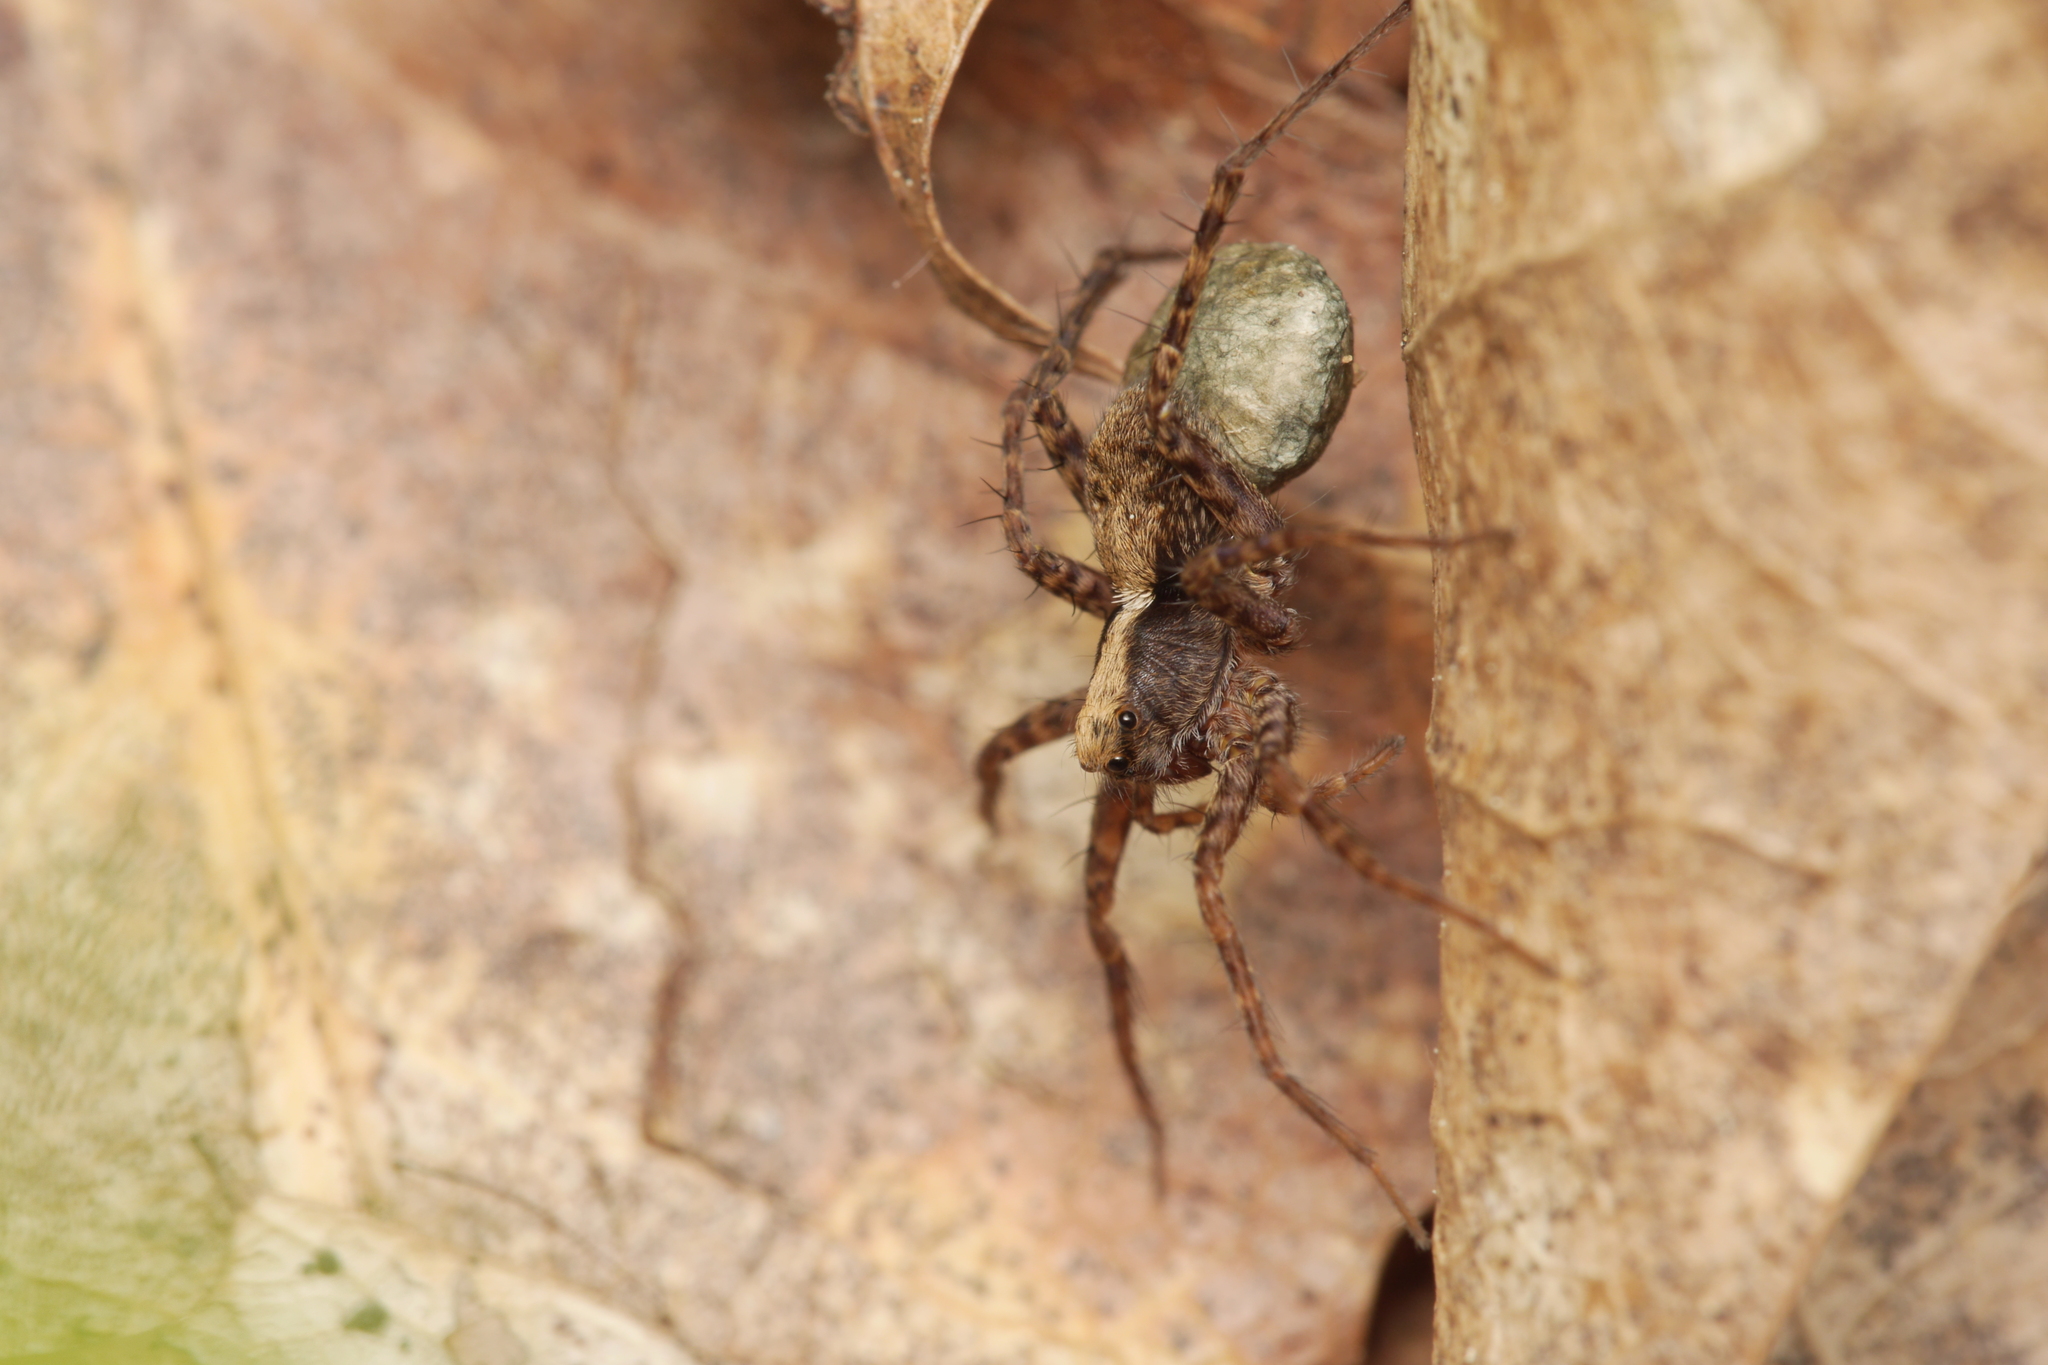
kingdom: Animalia
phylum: Arthropoda
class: Arachnida
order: Araneae
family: Lycosidae
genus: Pardosa
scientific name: Pardosa
